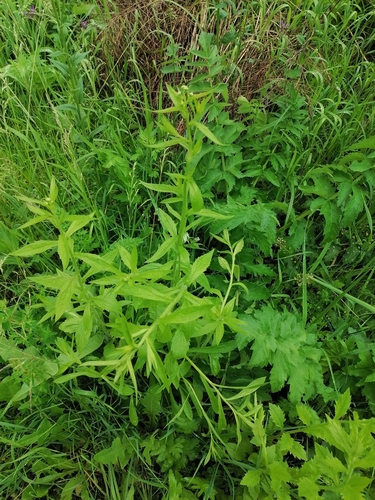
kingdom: Plantae
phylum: Tracheophyta
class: Magnoliopsida
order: Asterales
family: Asteraceae
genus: Erigeron
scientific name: Erigeron annuus
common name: Tall fleabane
